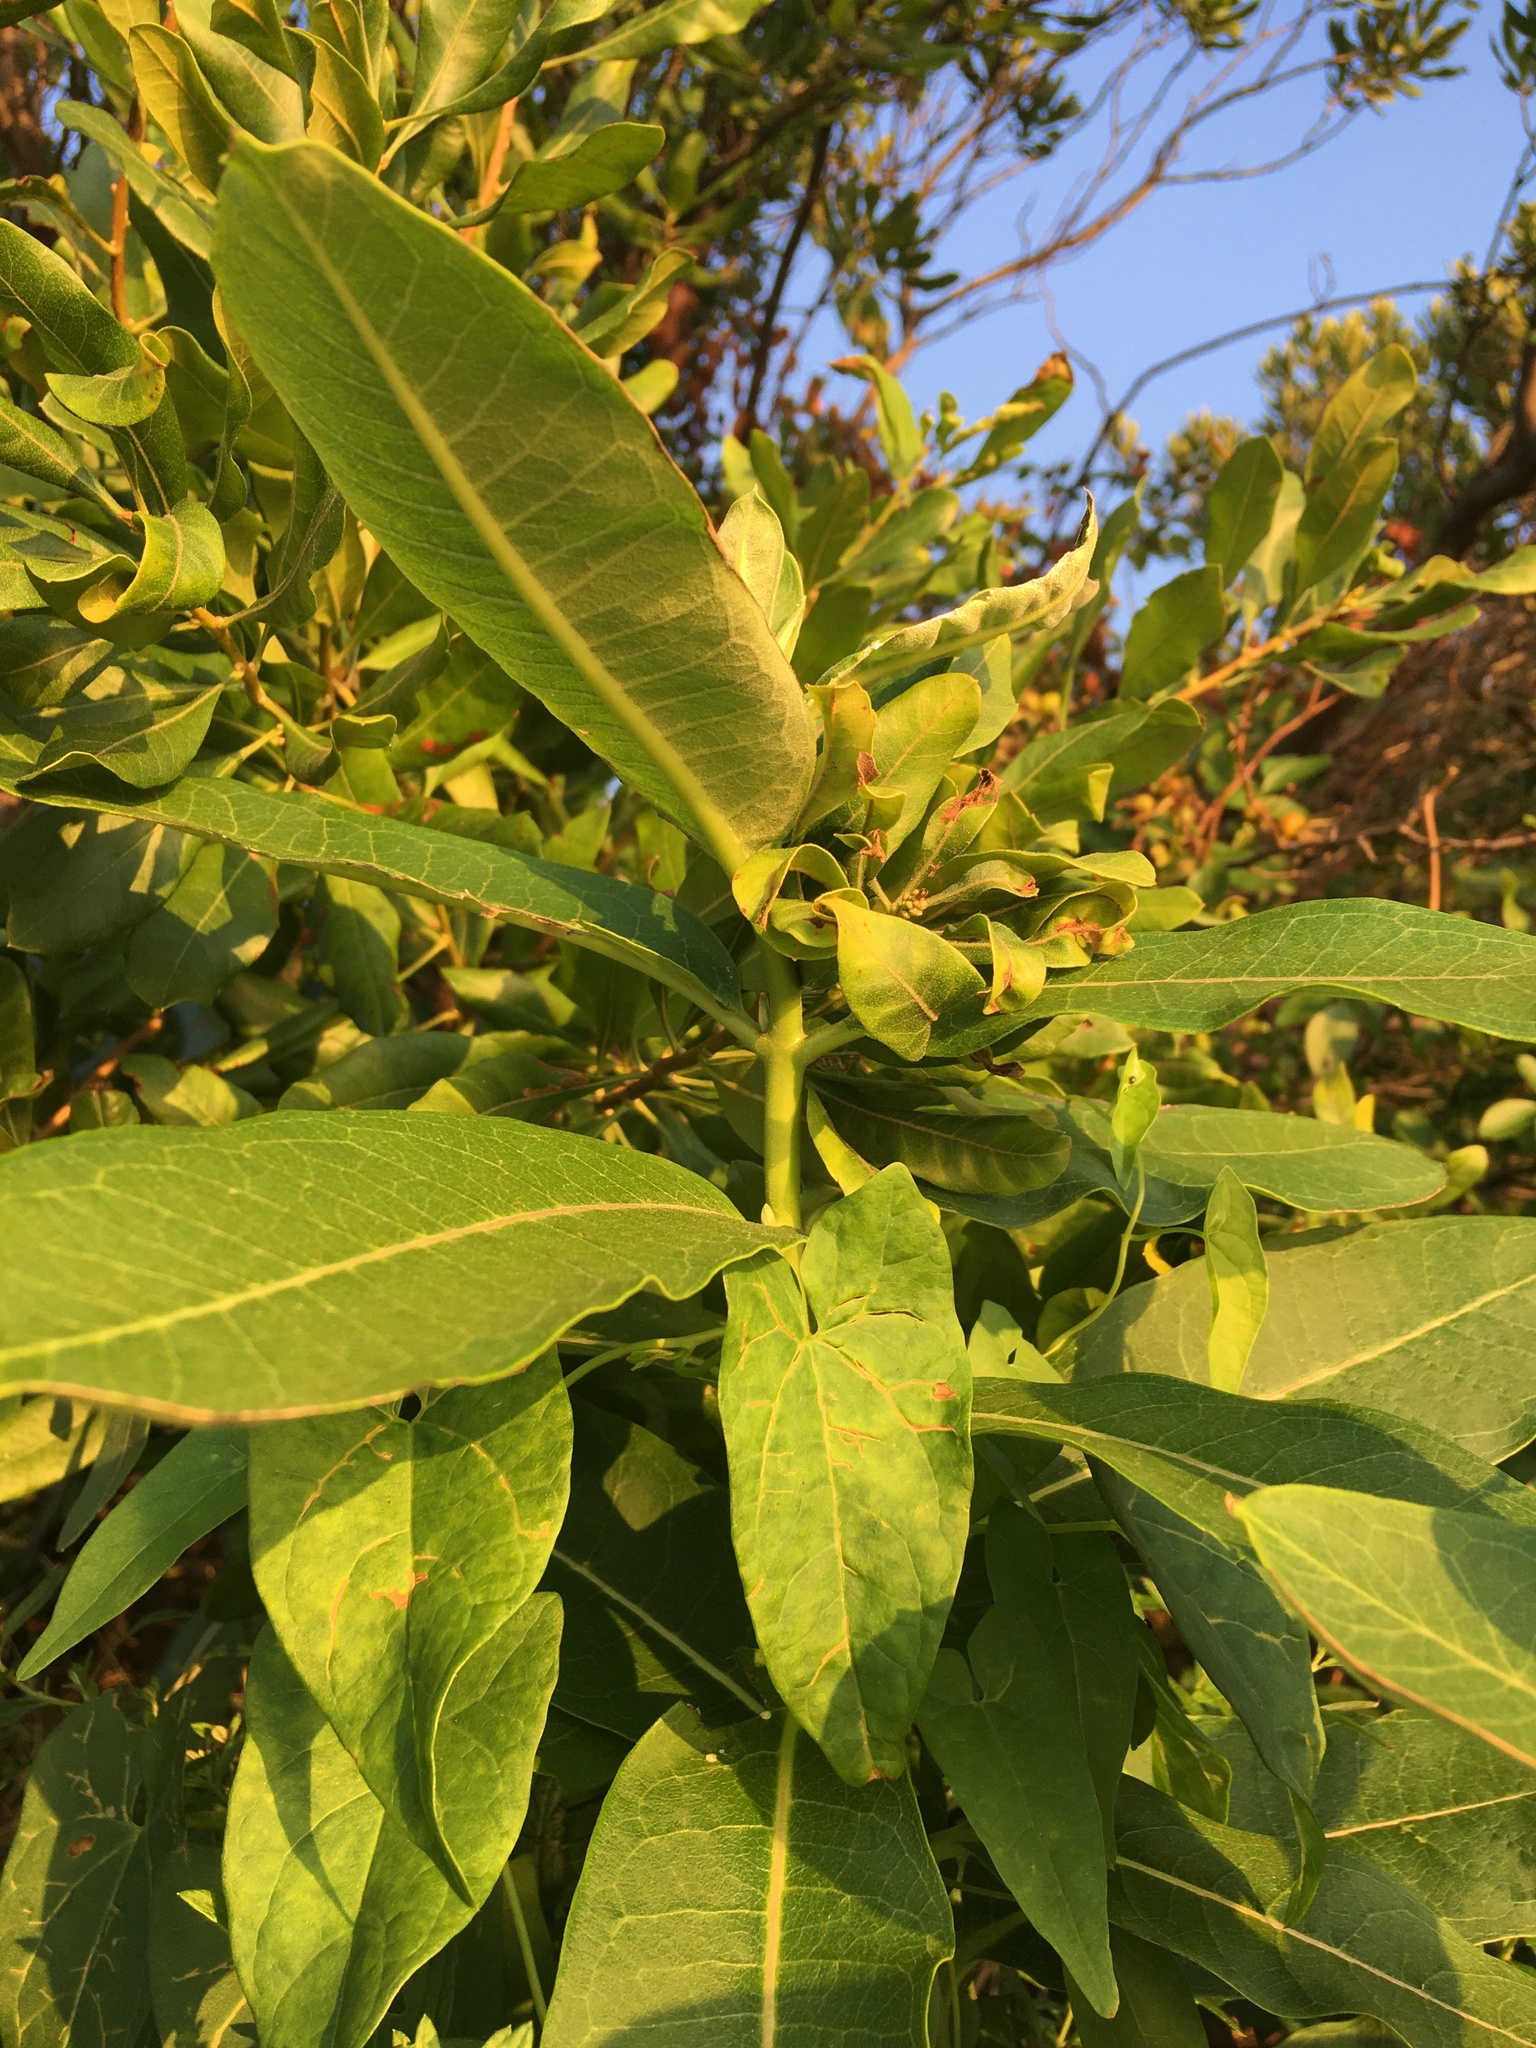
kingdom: Plantae
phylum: Tracheophyta
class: Magnoliopsida
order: Gentianales
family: Apocynaceae
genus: Asclepias
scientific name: Asclepias syriaca
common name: Common milkweed
